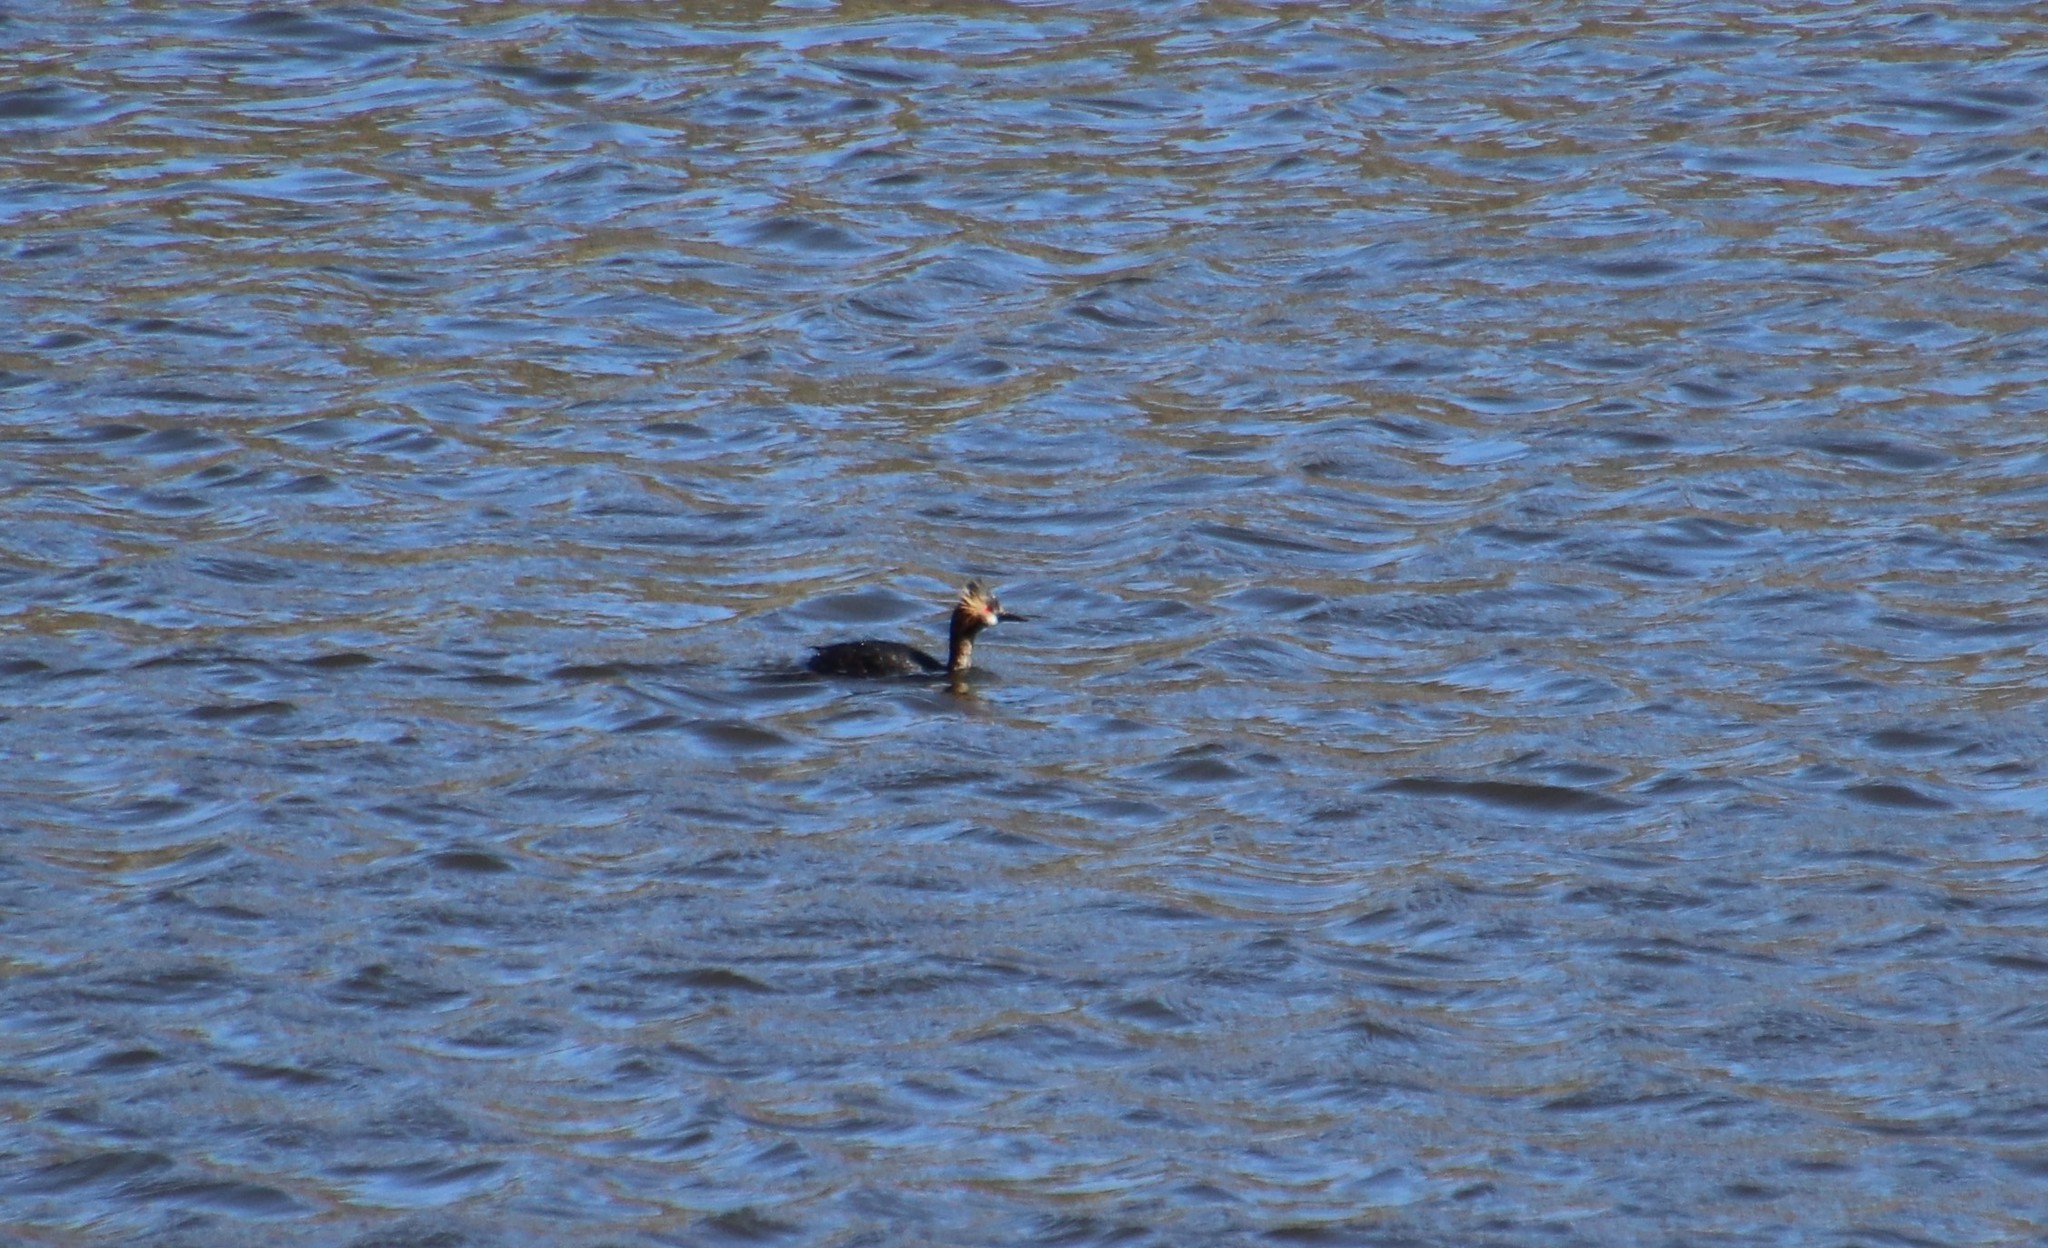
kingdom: Animalia
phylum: Chordata
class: Aves
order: Podicipediformes
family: Podicipedidae
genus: Podiceps
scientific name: Podiceps nigricollis
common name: Black-necked grebe
